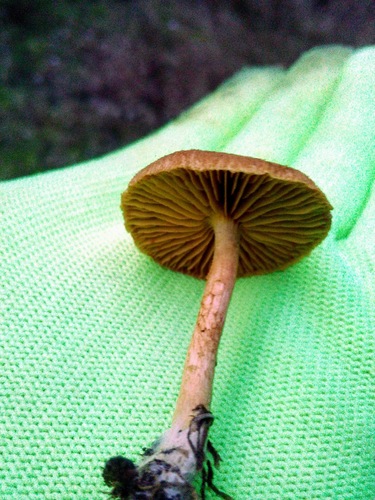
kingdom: Fungi
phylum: Basidiomycota
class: Agaricomycetes
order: Agaricales
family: Cortinariaceae
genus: Cortinarius
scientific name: Cortinarius
